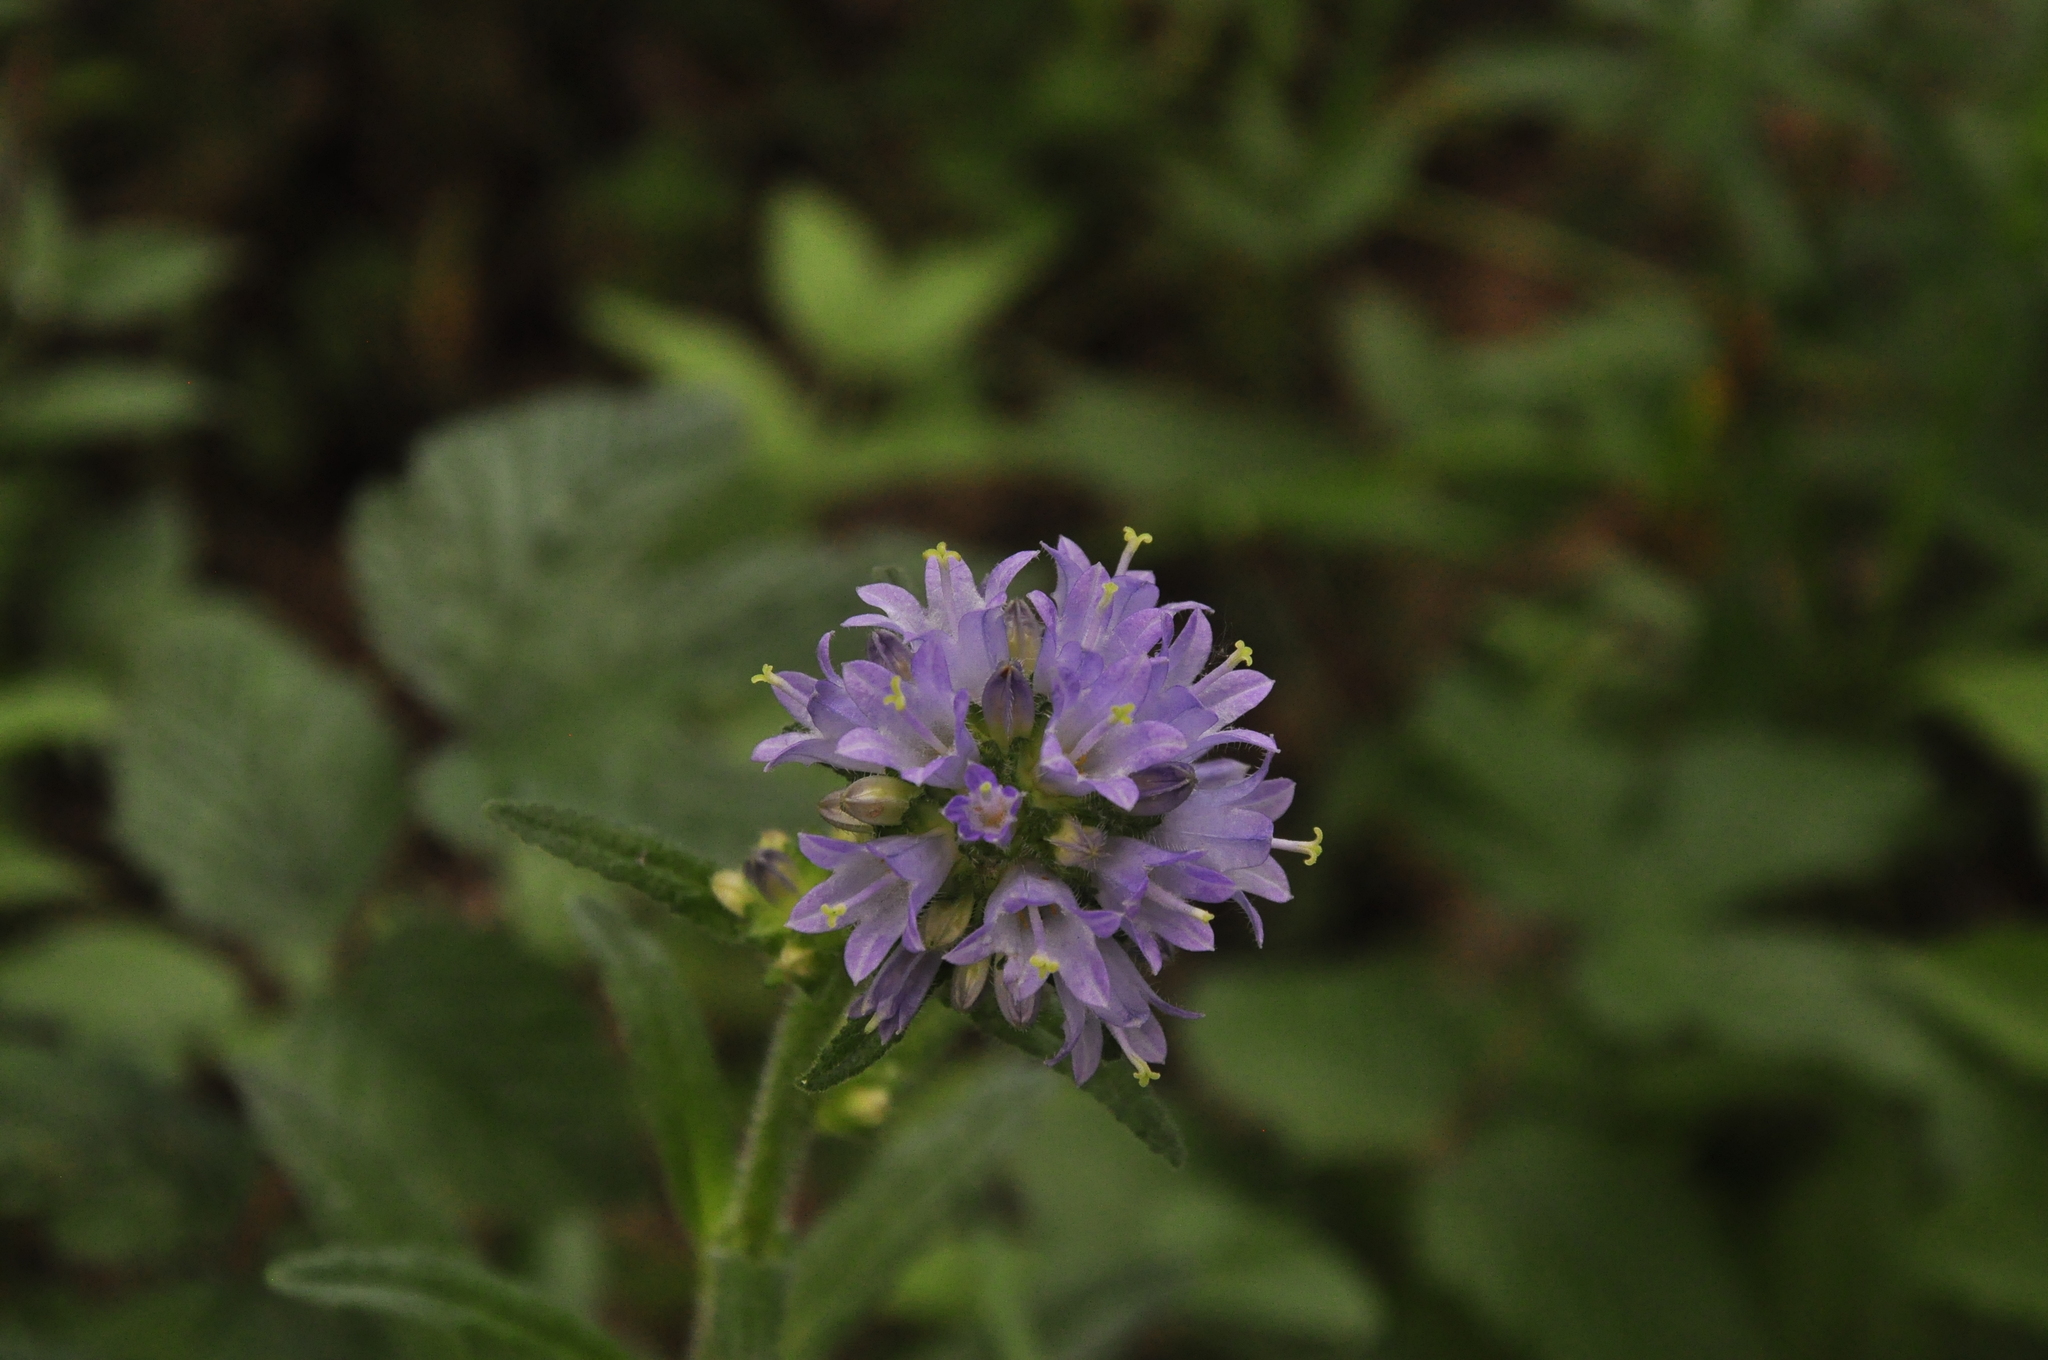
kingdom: Plantae
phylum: Tracheophyta
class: Magnoliopsida
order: Asterales
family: Campanulaceae
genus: Campanula
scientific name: Campanula cervicaria
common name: Bristly bellflower
